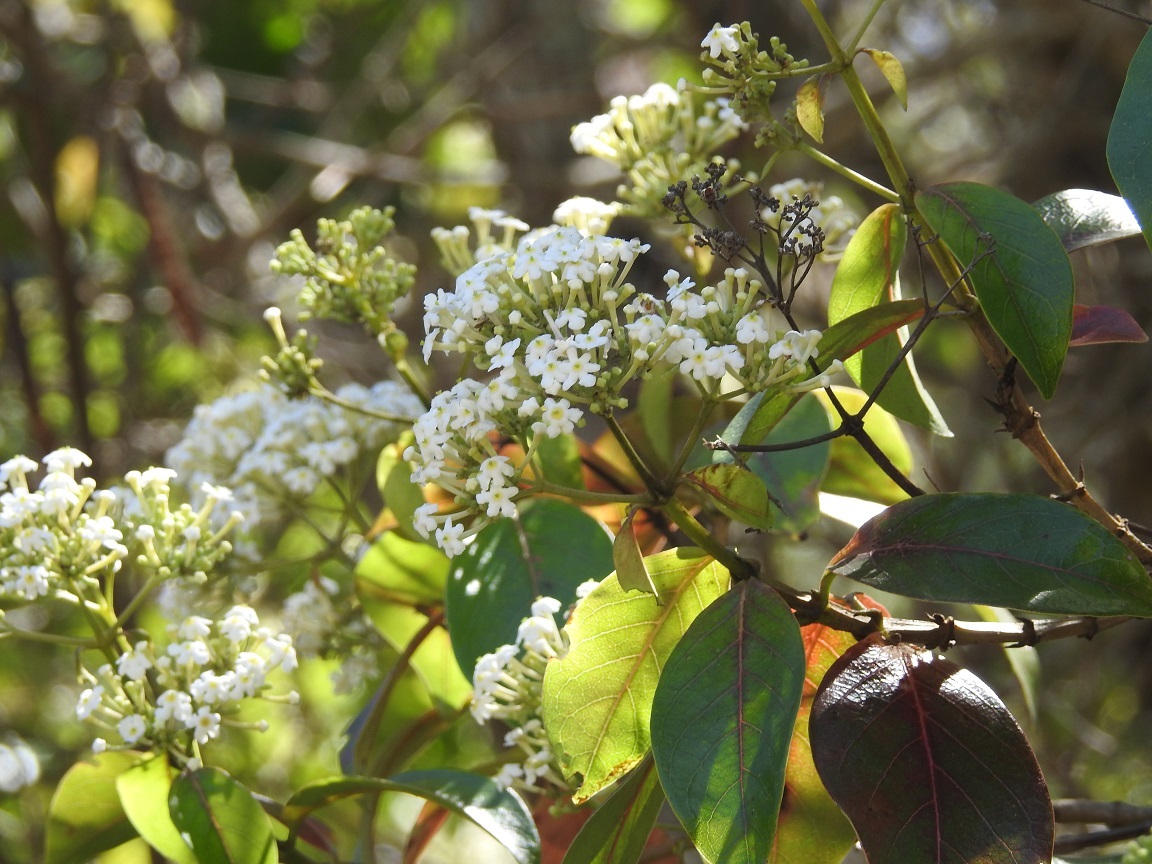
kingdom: Plantae
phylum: Tracheophyta
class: Magnoliopsida
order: Gentianales
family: Rubiaceae
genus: Rogiera
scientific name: Rogiera amoena
